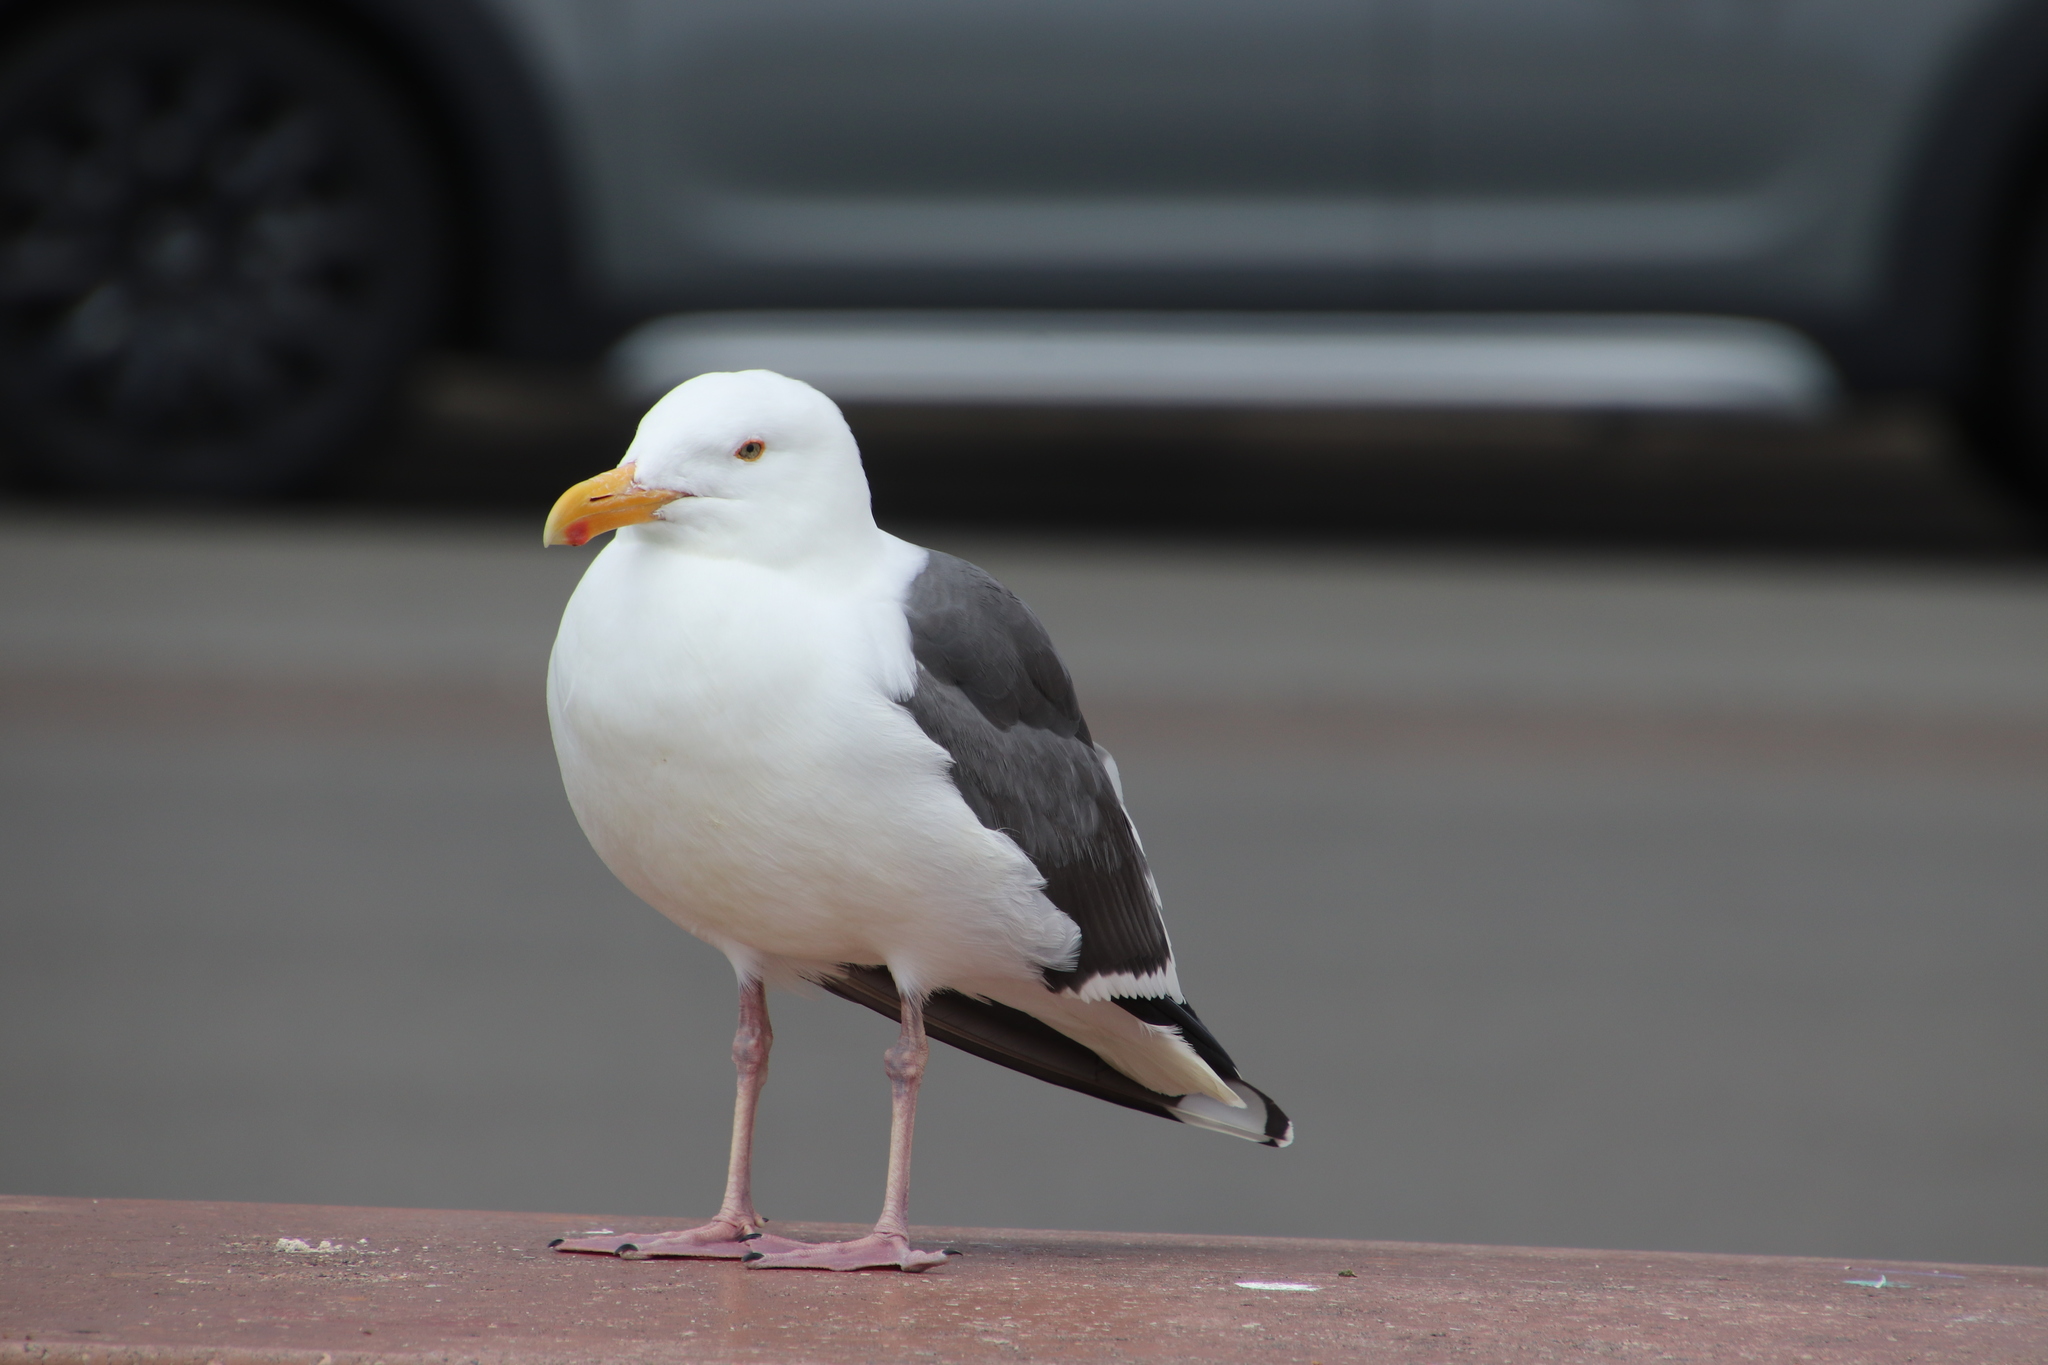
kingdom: Animalia
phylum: Chordata
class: Aves
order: Charadriiformes
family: Laridae
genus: Larus
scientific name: Larus occidentalis
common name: Western gull
